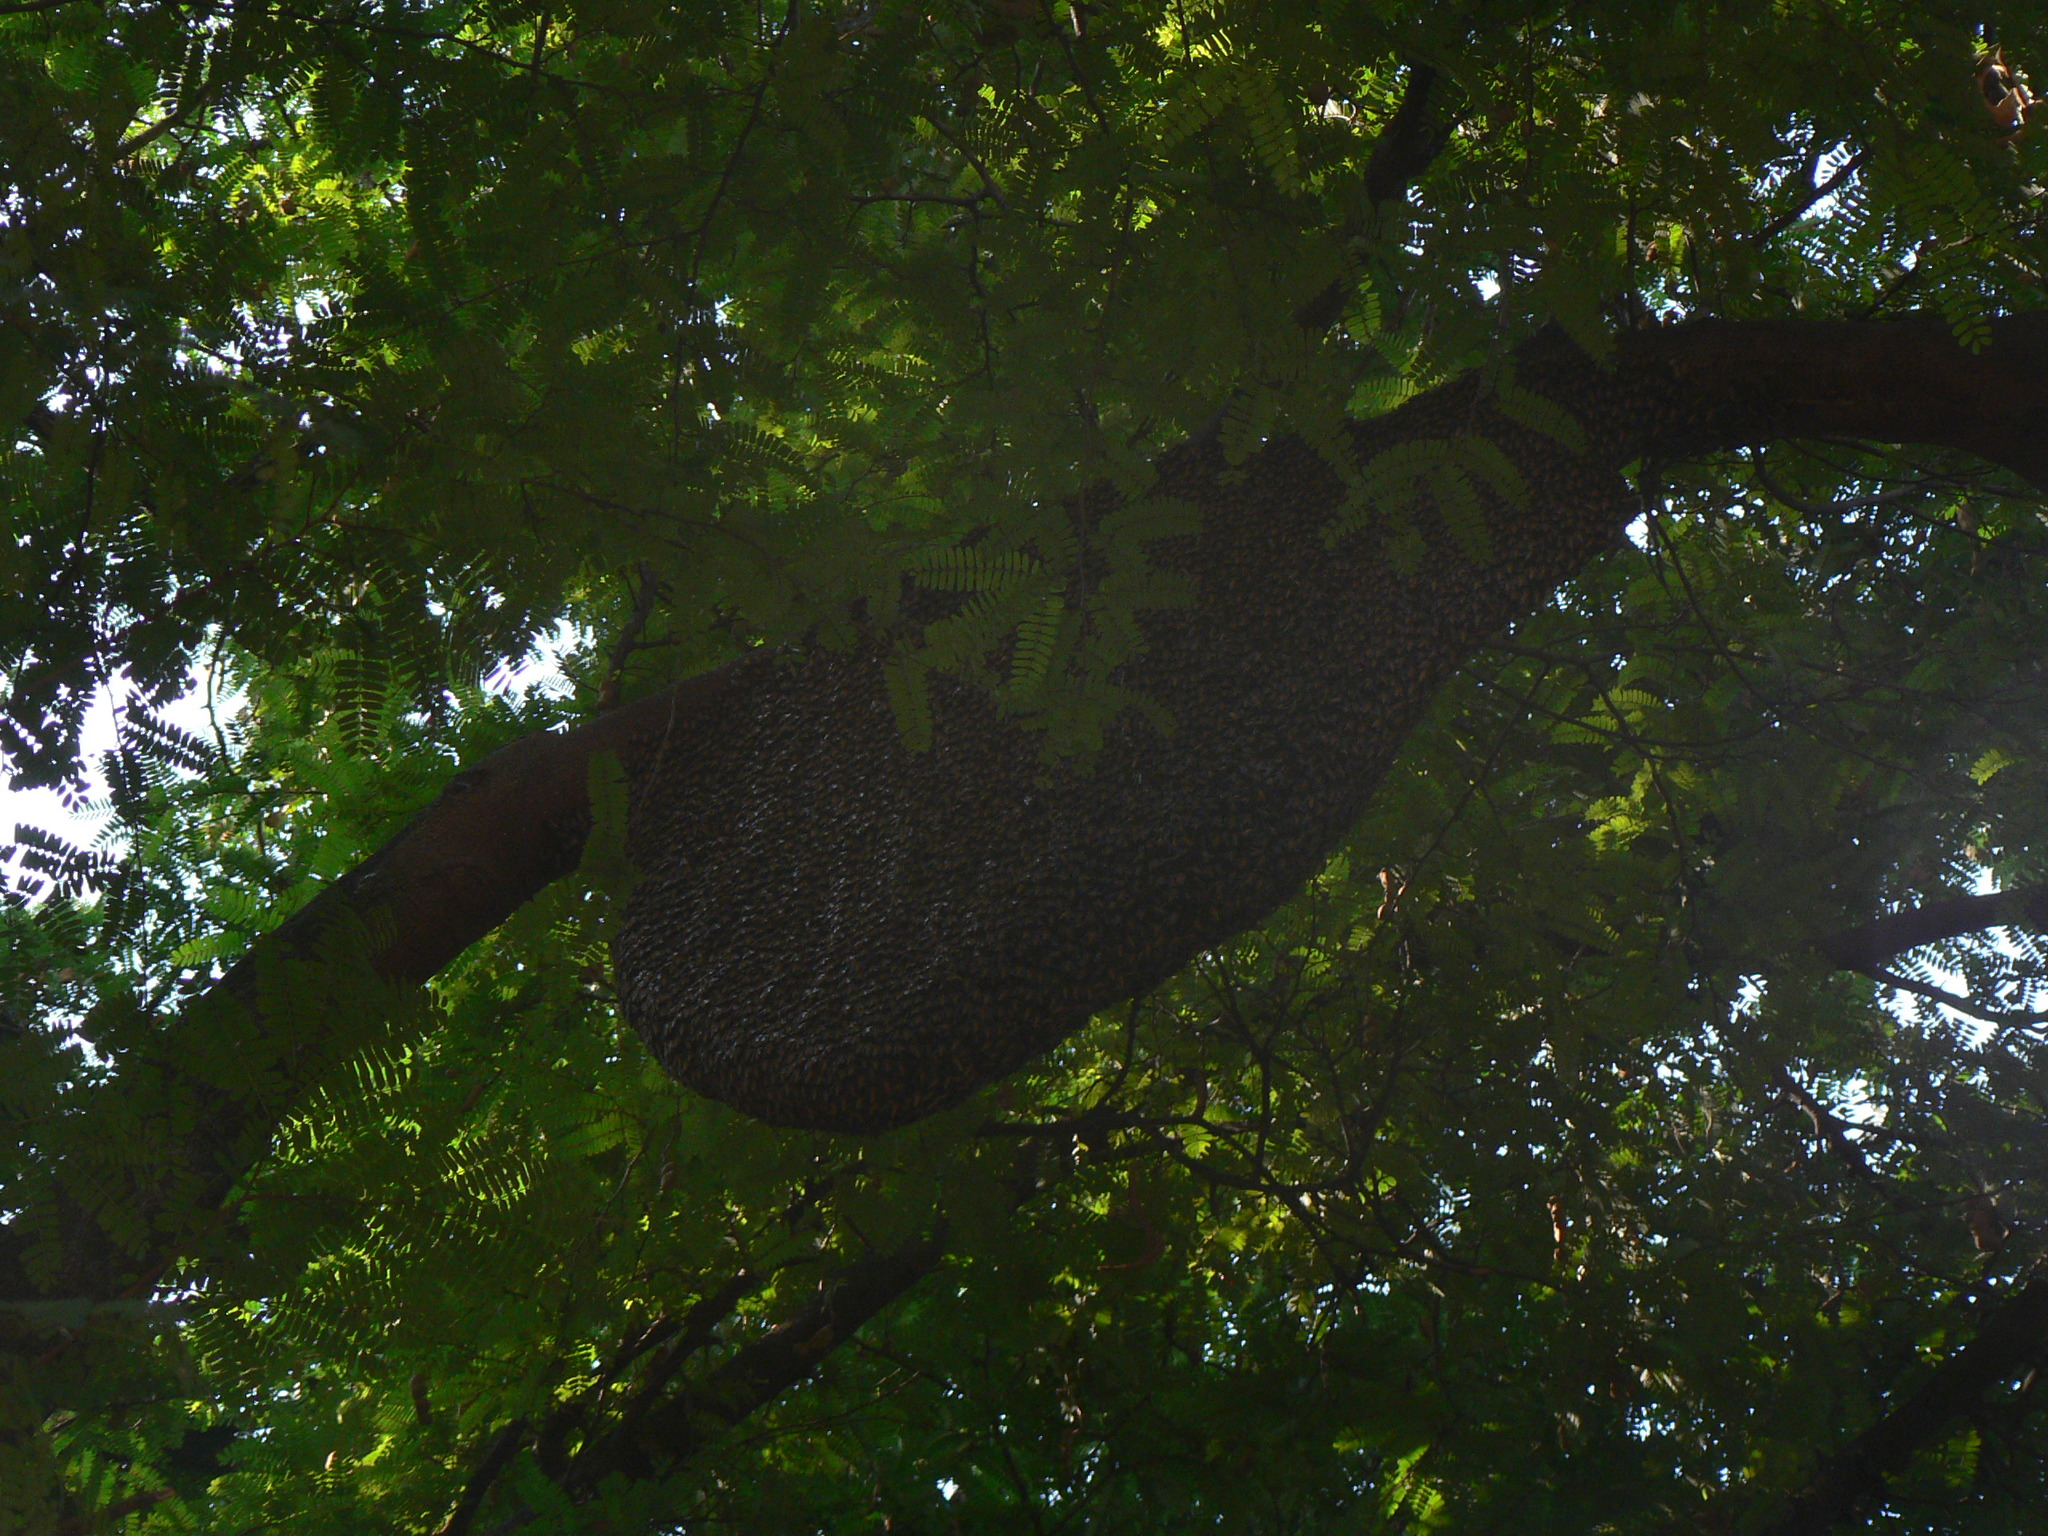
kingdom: Animalia
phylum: Arthropoda
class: Insecta
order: Hymenoptera
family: Apidae
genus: Apis
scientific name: Apis dorsata
